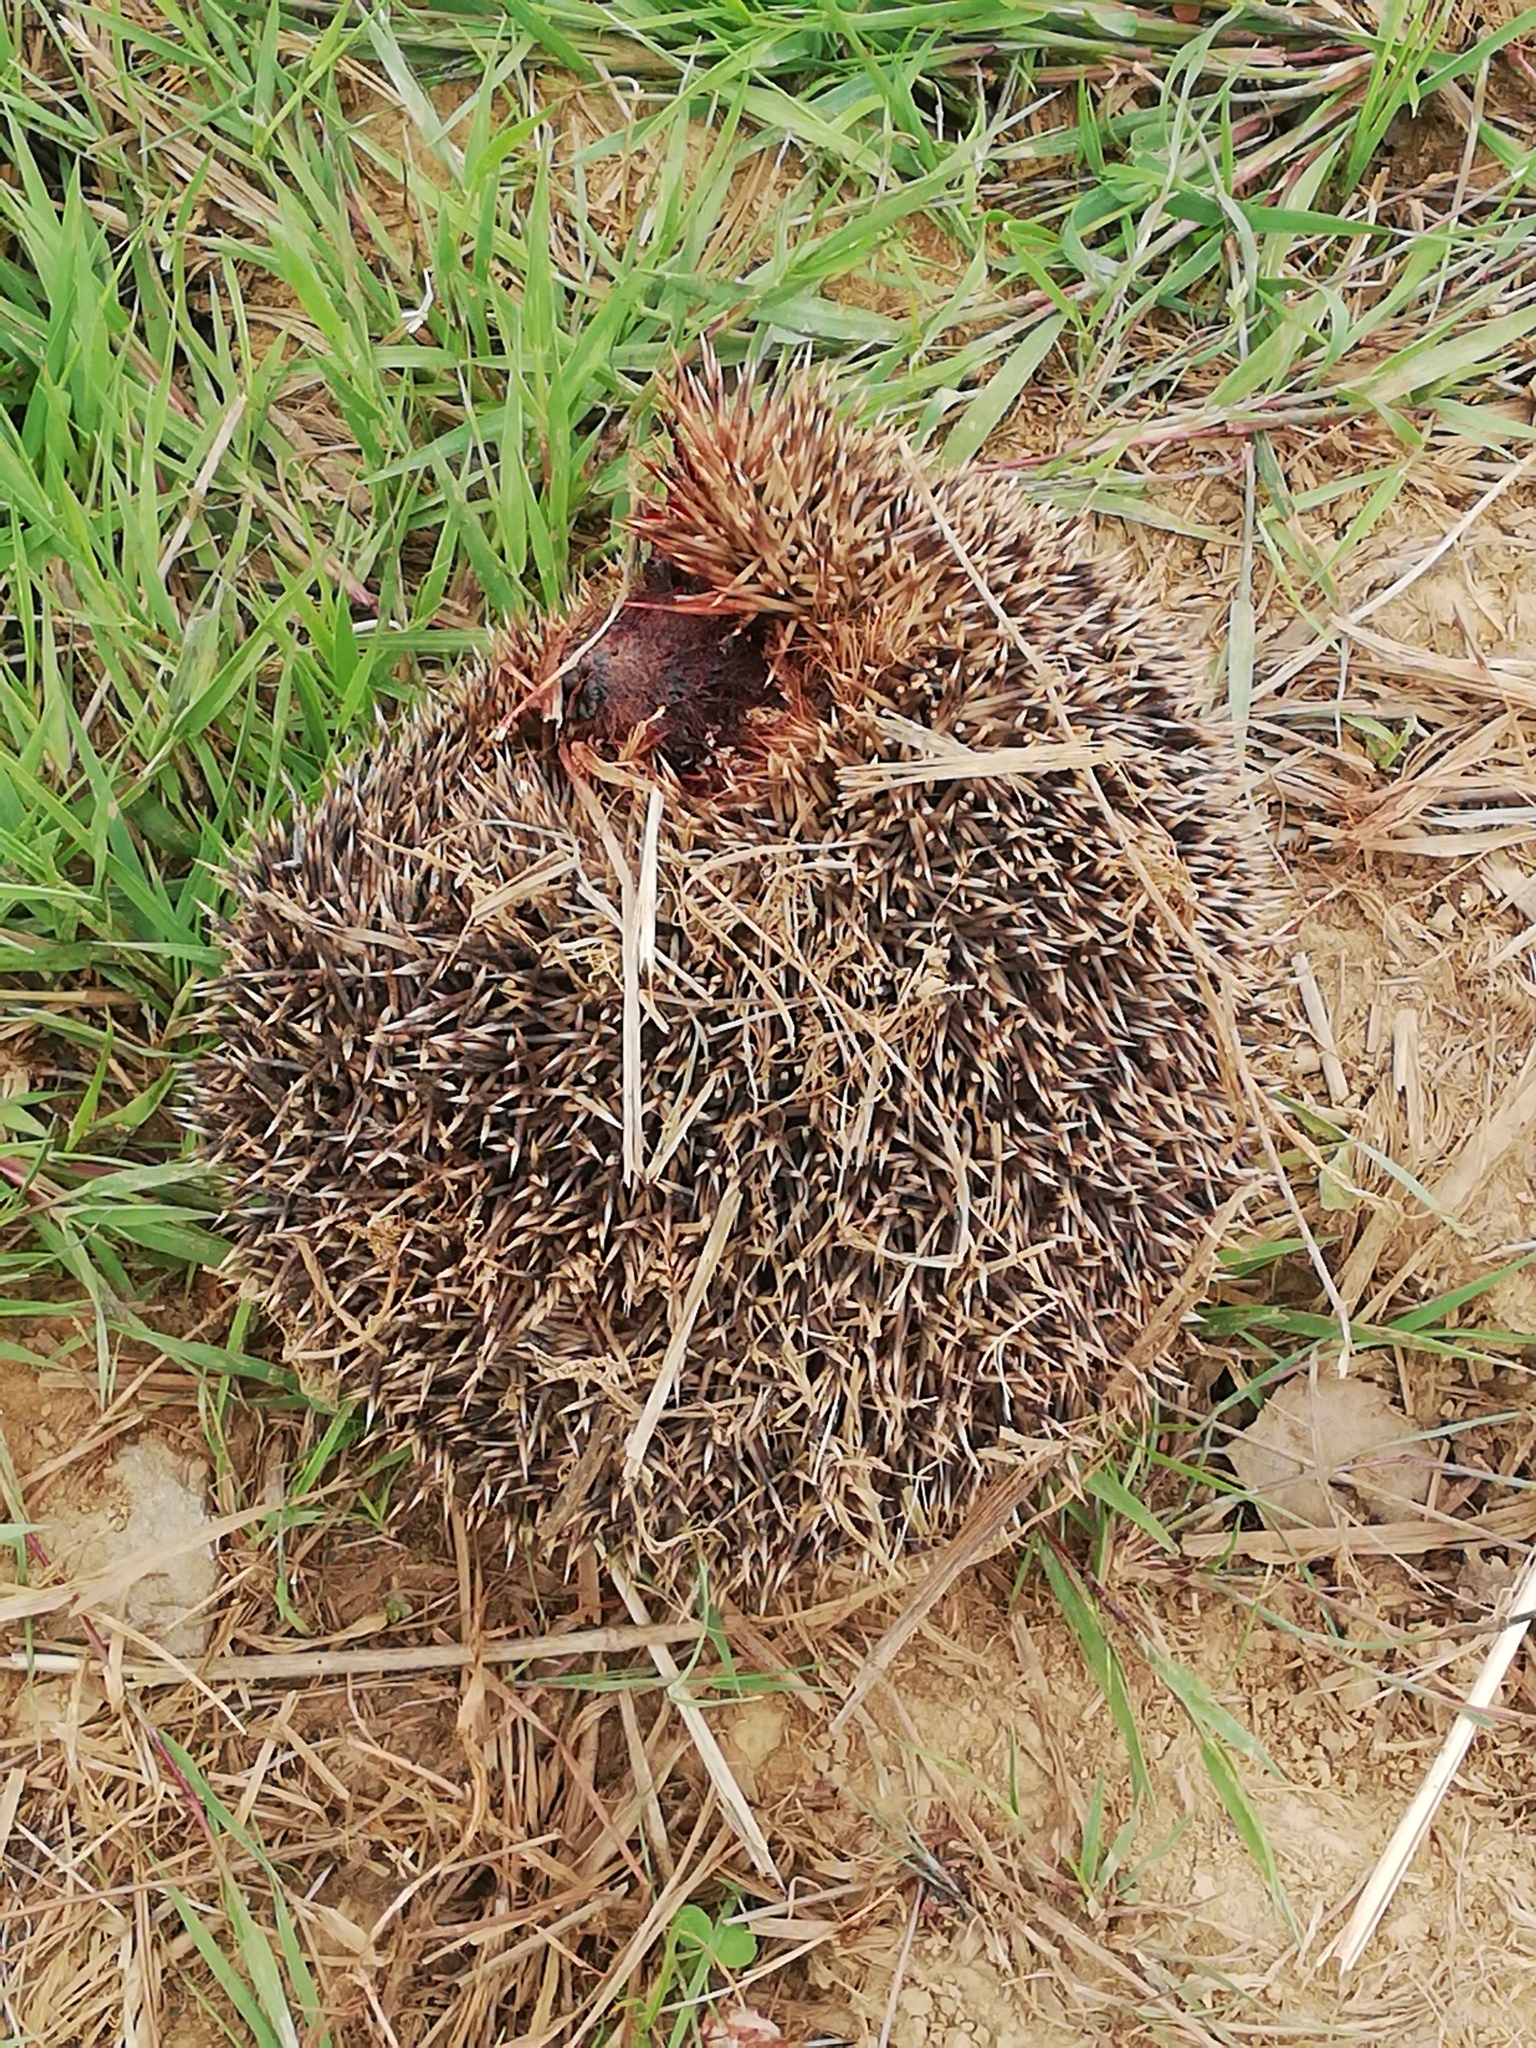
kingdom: Animalia
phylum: Chordata
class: Mammalia
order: Erinaceomorpha
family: Erinaceidae
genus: Erinaceus
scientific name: Erinaceus europaeus
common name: West european hedgehog
